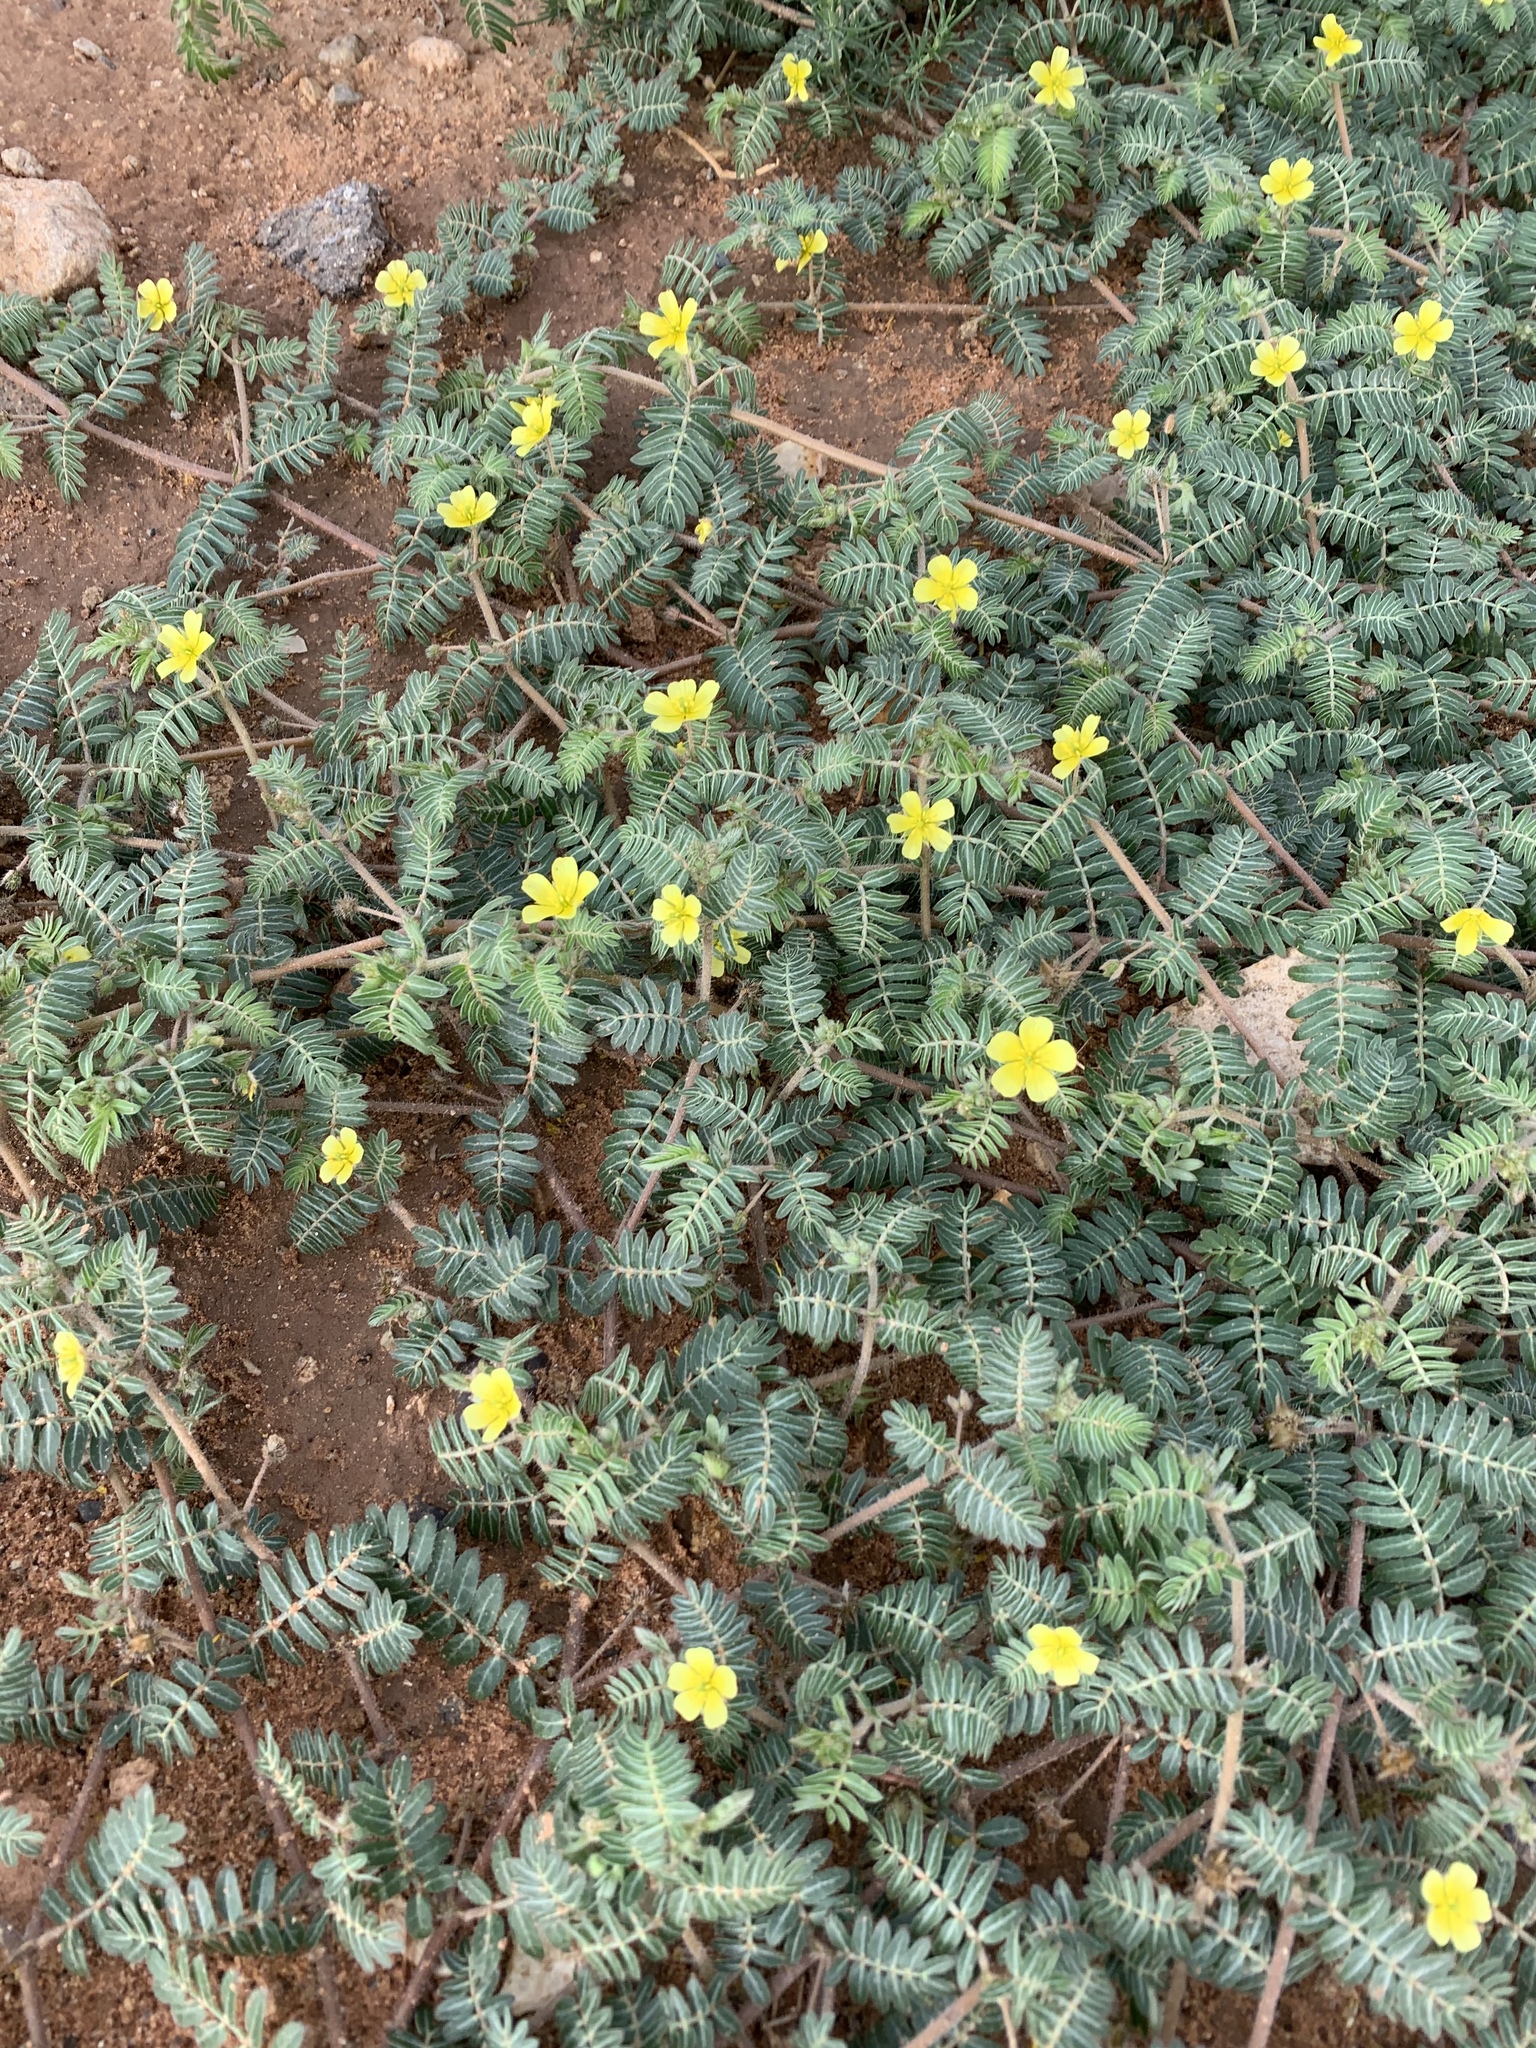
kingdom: Plantae
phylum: Tracheophyta
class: Magnoliopsida
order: Zygophyllales
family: Zygophyllaceae
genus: Tribulus
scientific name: Tribulus terrestris
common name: Puncturevine
